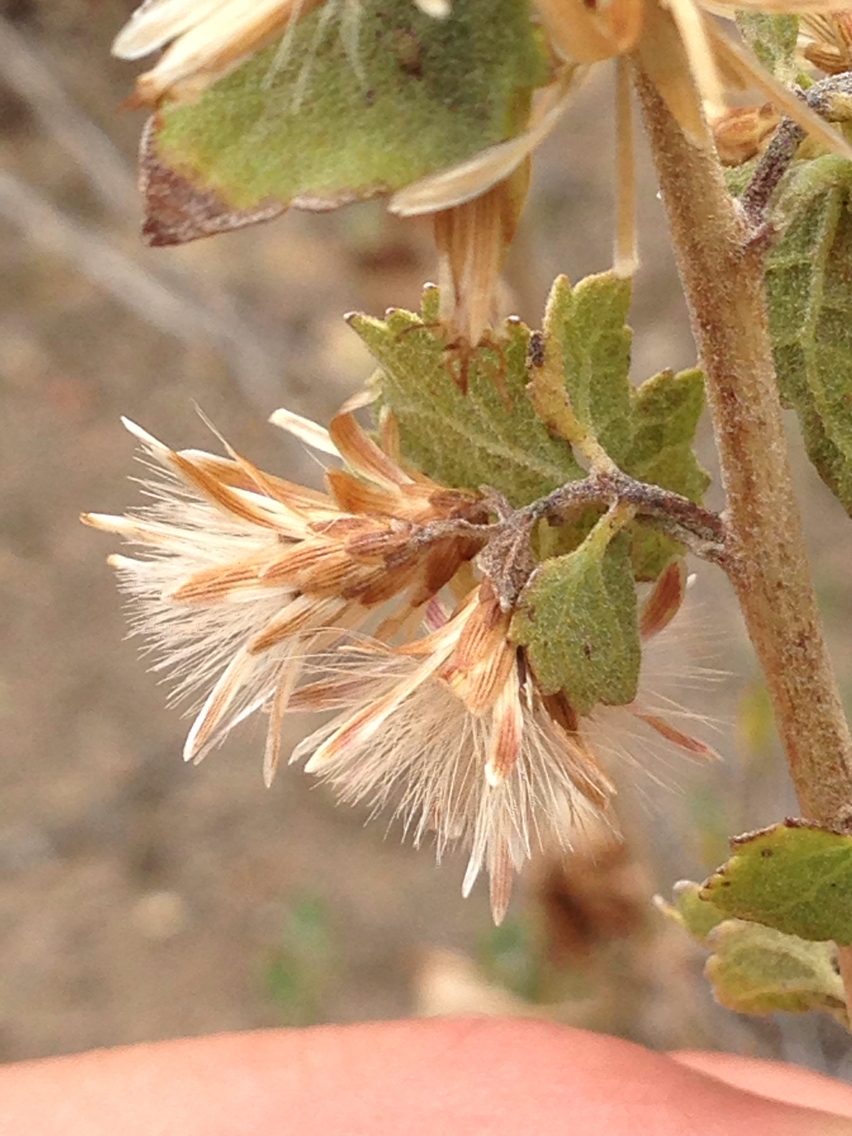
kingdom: Plantae
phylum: Tracheophyta
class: Magnoliopsida
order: Asterales
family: Asteraceae
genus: Brickellia
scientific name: Brickellia californica
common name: California brickellbush
